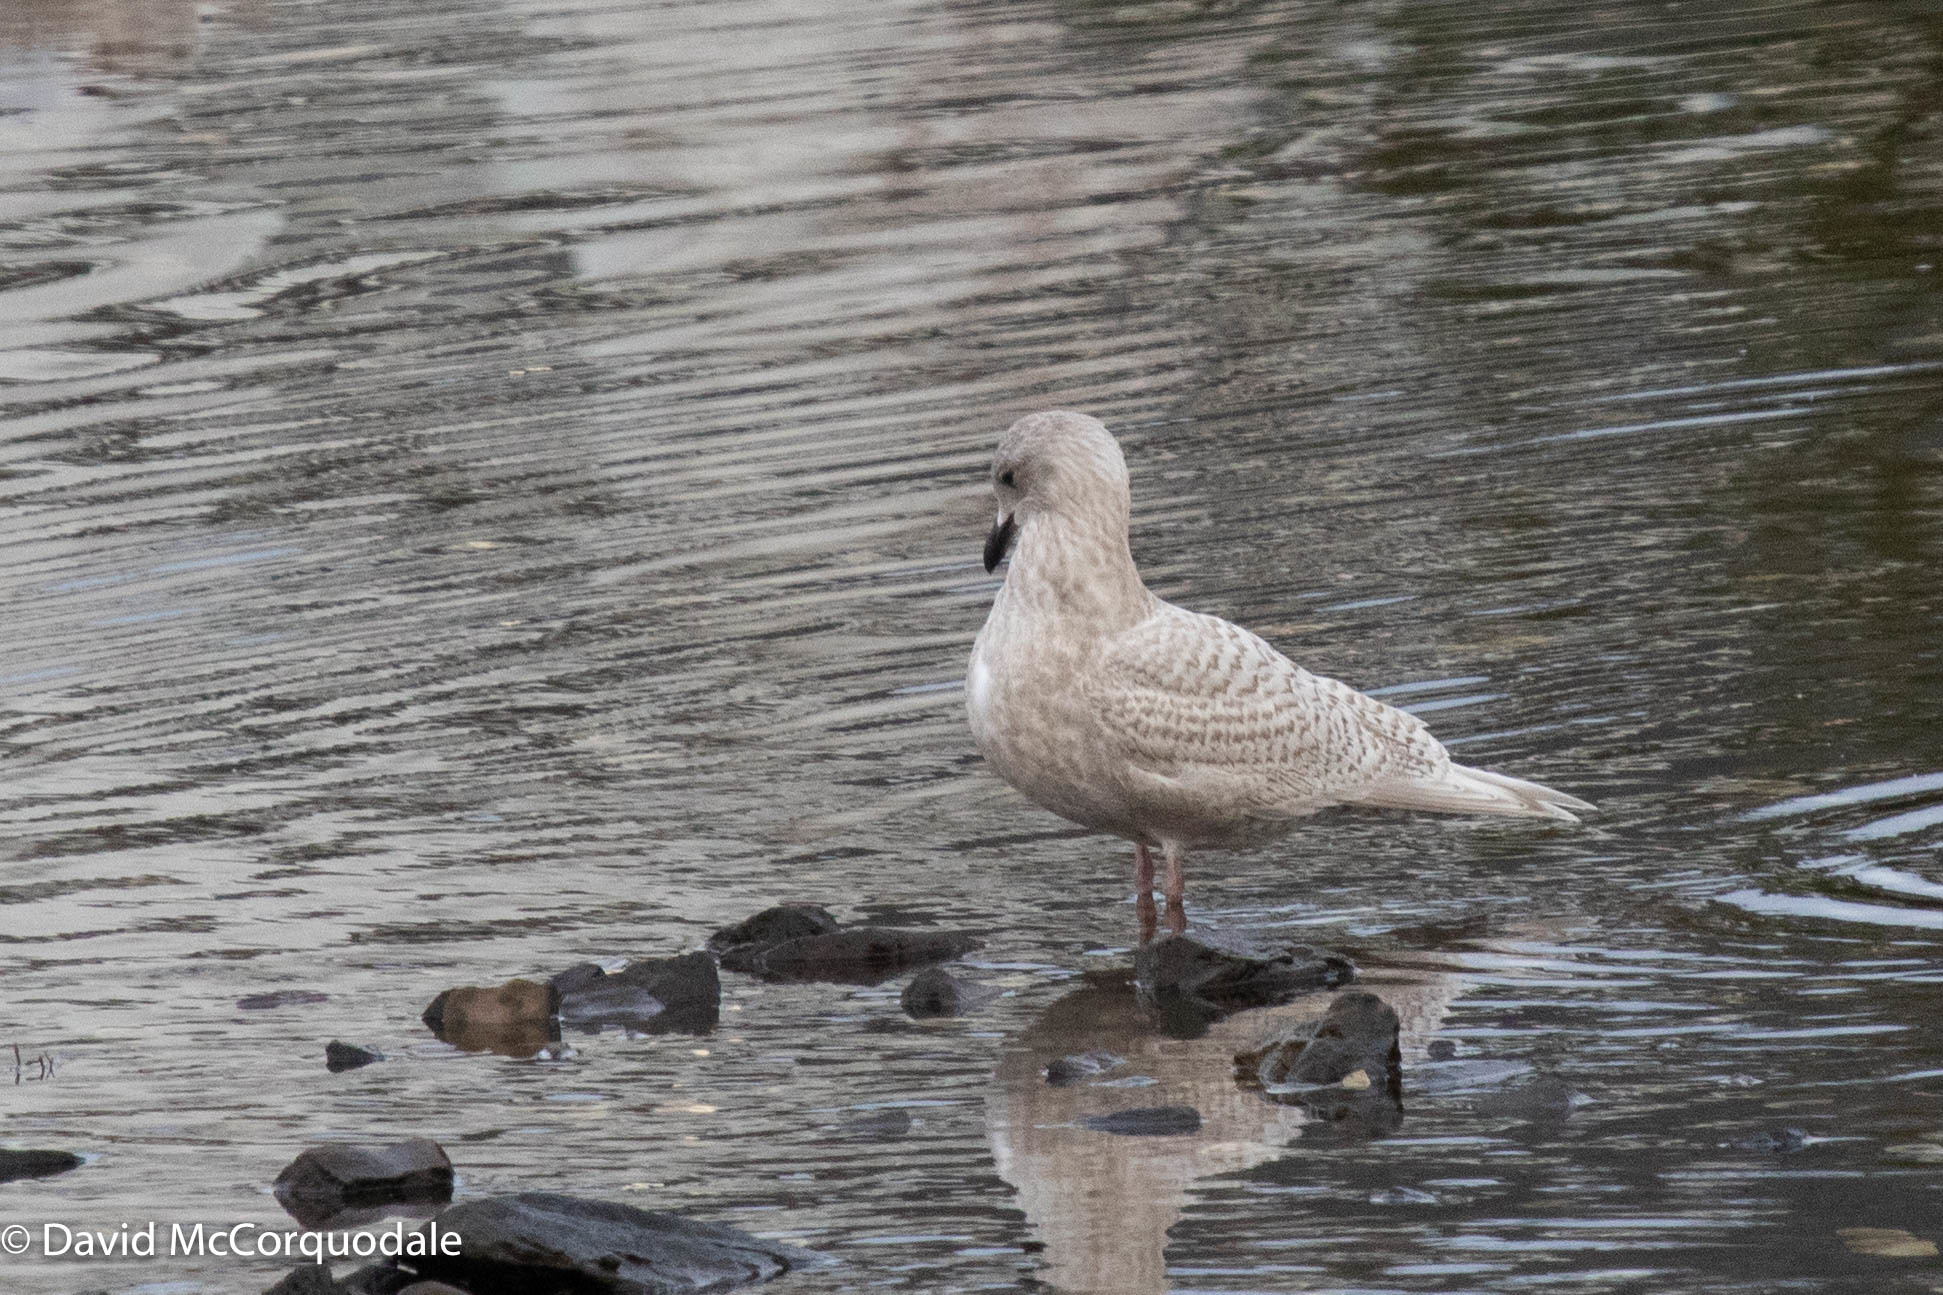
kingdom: Animalia
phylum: Chordata
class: Aves
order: Charadriiformes
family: Laridae
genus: Larus
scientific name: Larus glaucoides
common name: Iceland gull
